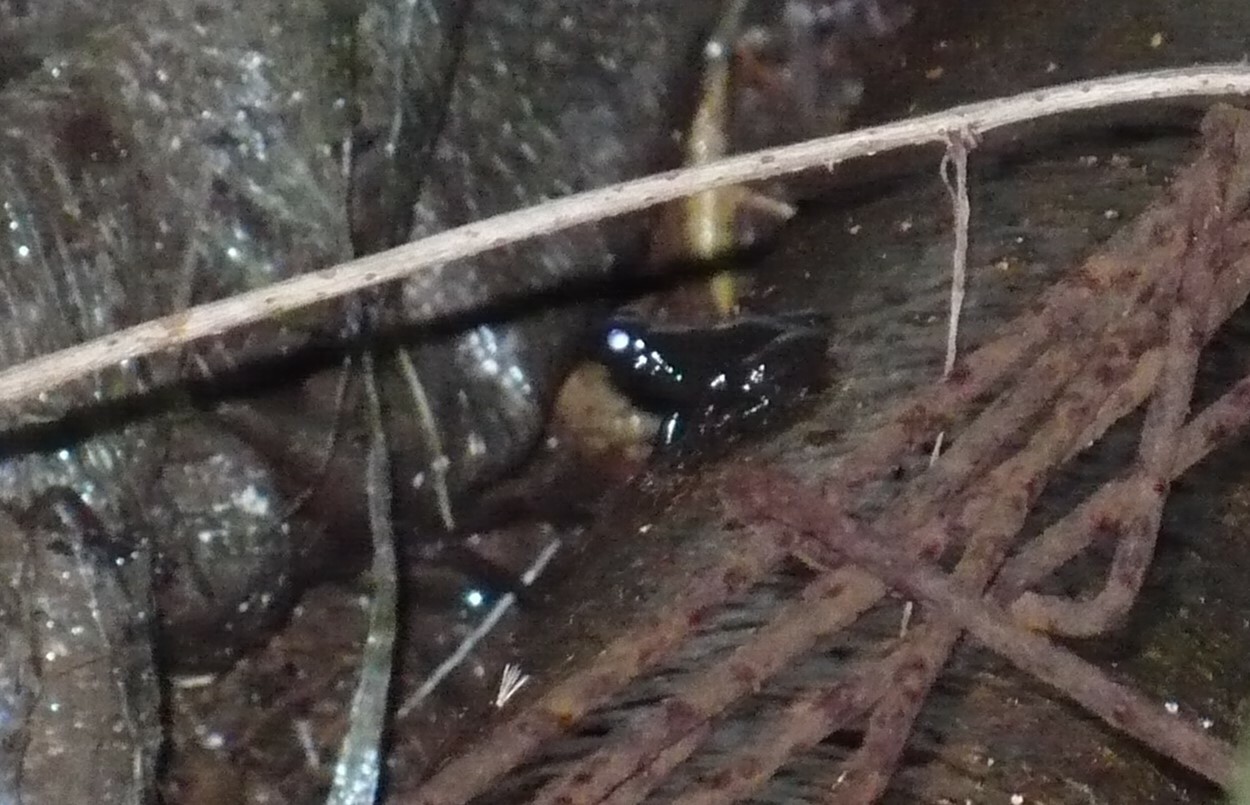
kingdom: Animalia
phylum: Chordata
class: Amphibia
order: Anura
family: Aromobatidae
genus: Mannophryne
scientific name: Mannophryne trinitatis
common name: Trinidad poison frog
